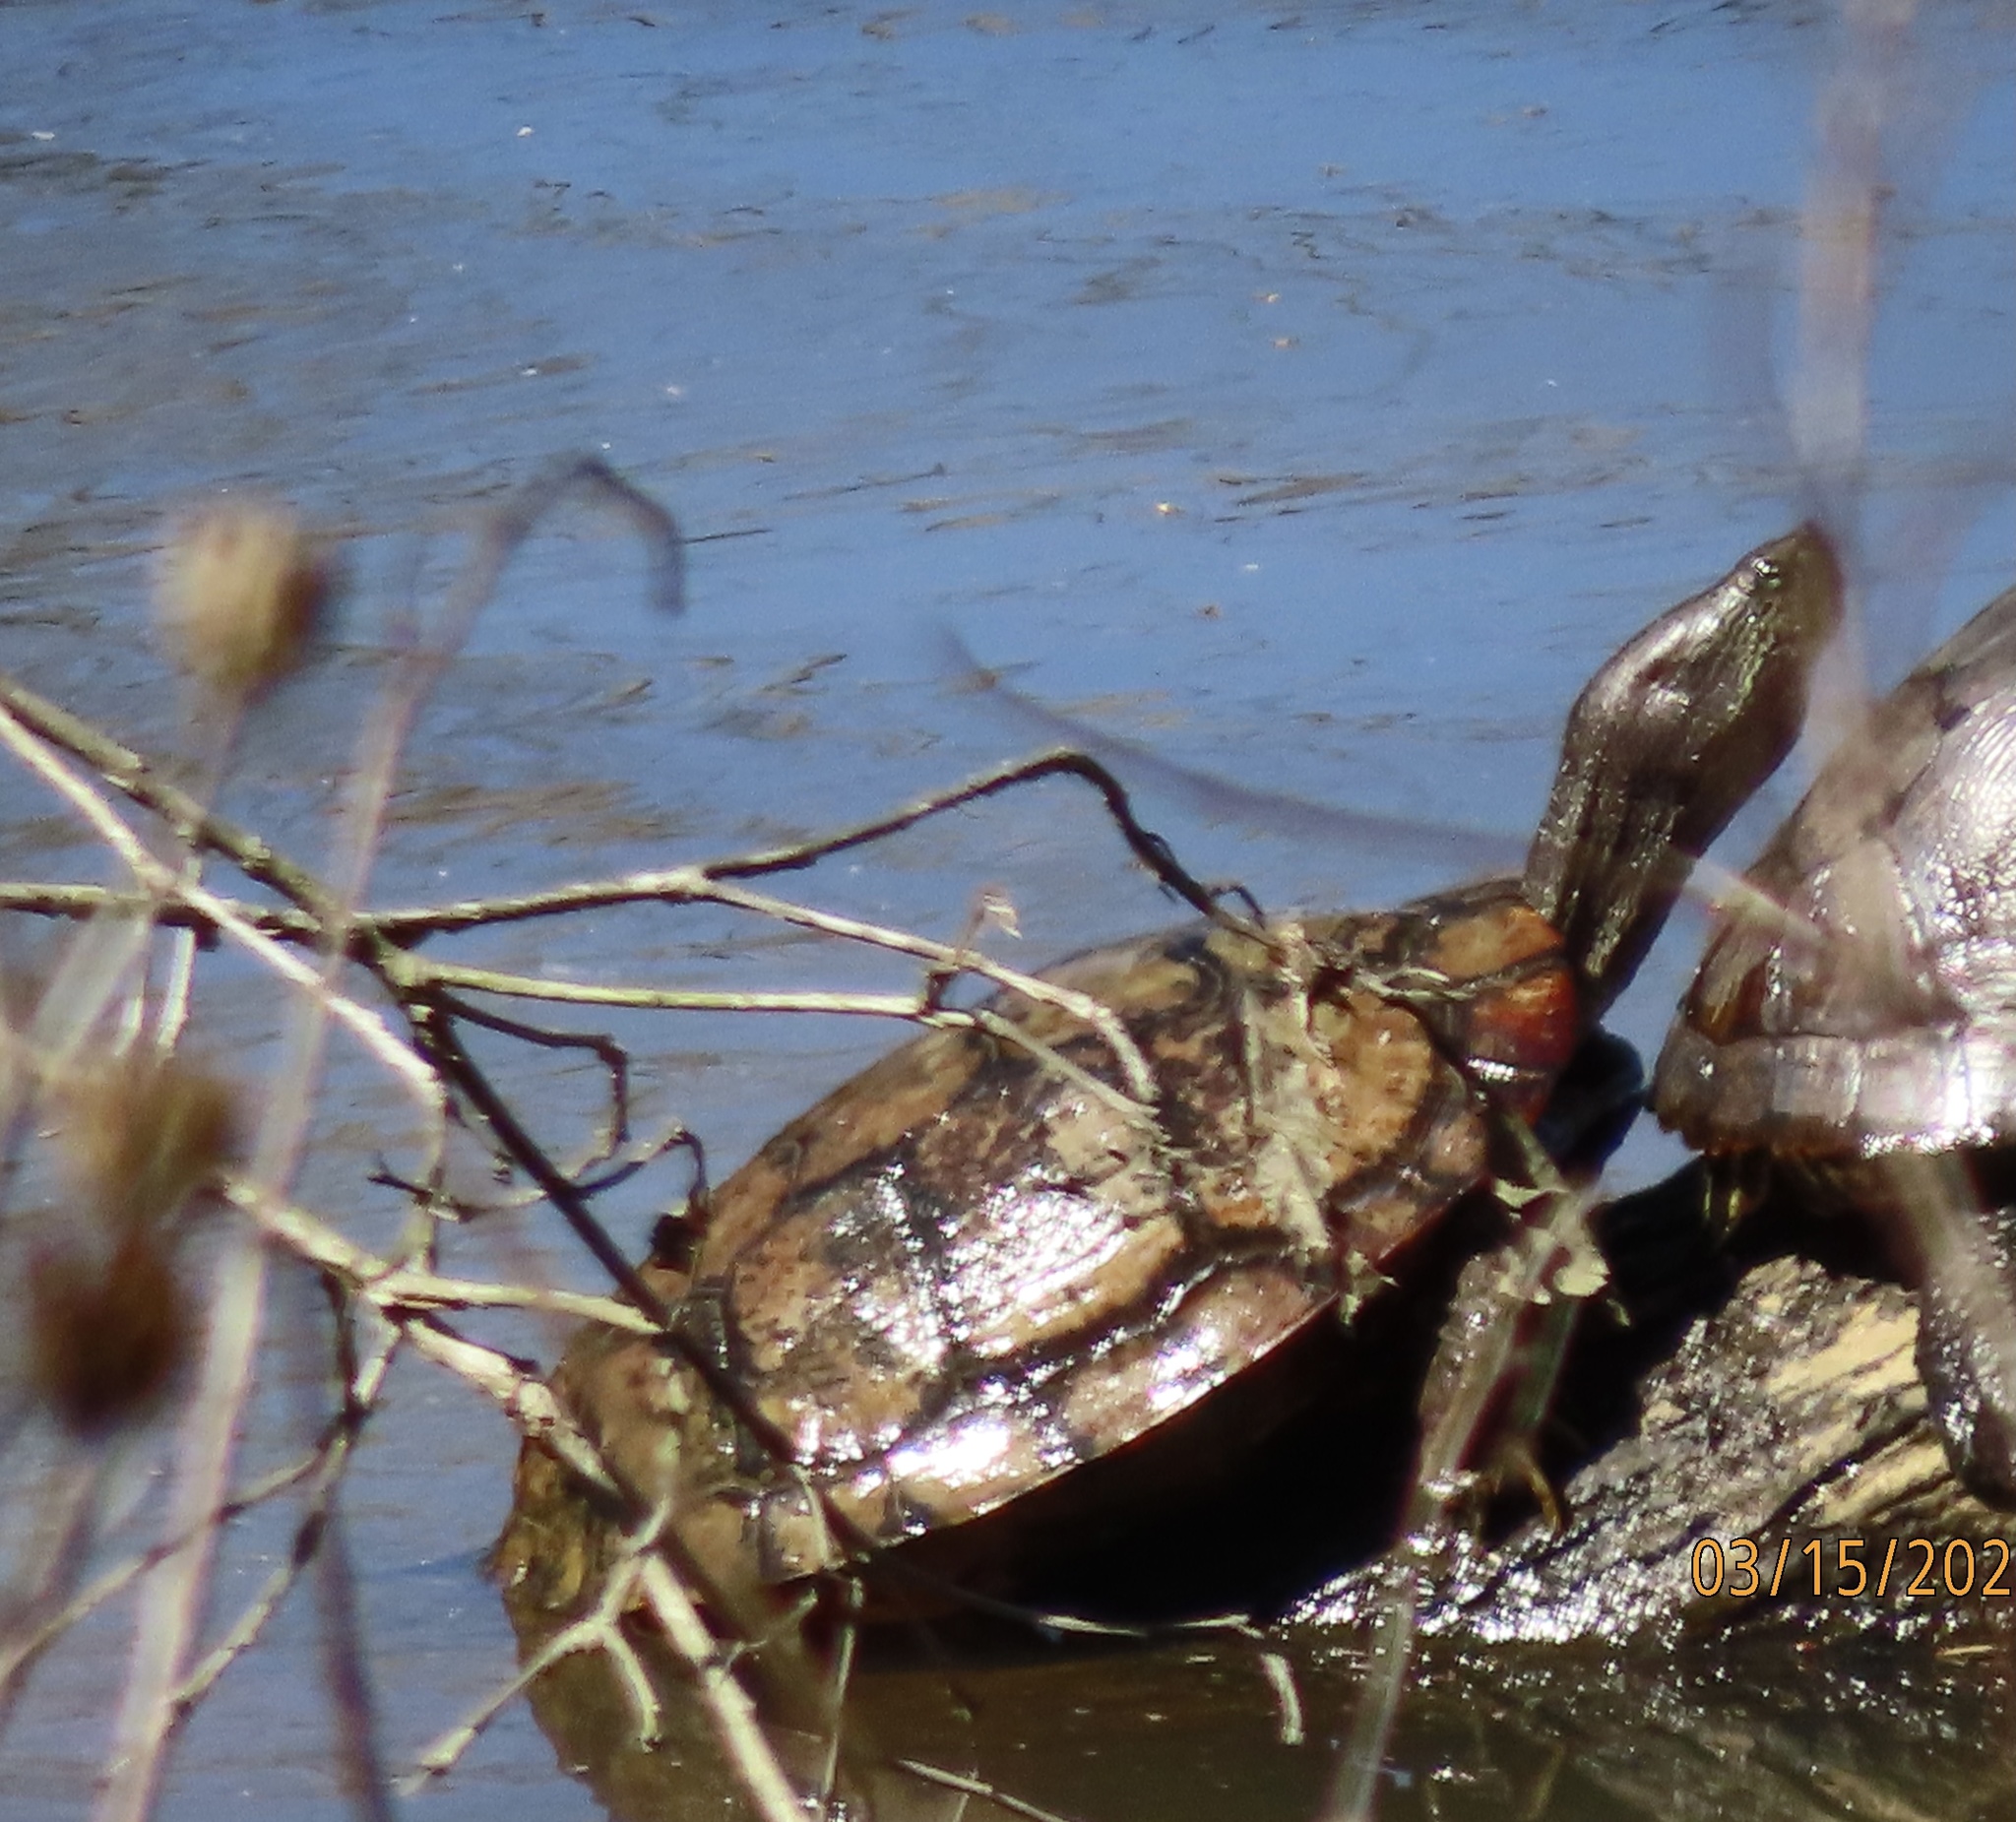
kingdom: Animalia
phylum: Chordata
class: Testudines
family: Emydidae
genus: Trachemys
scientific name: Trachemys scripta
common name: Slider
